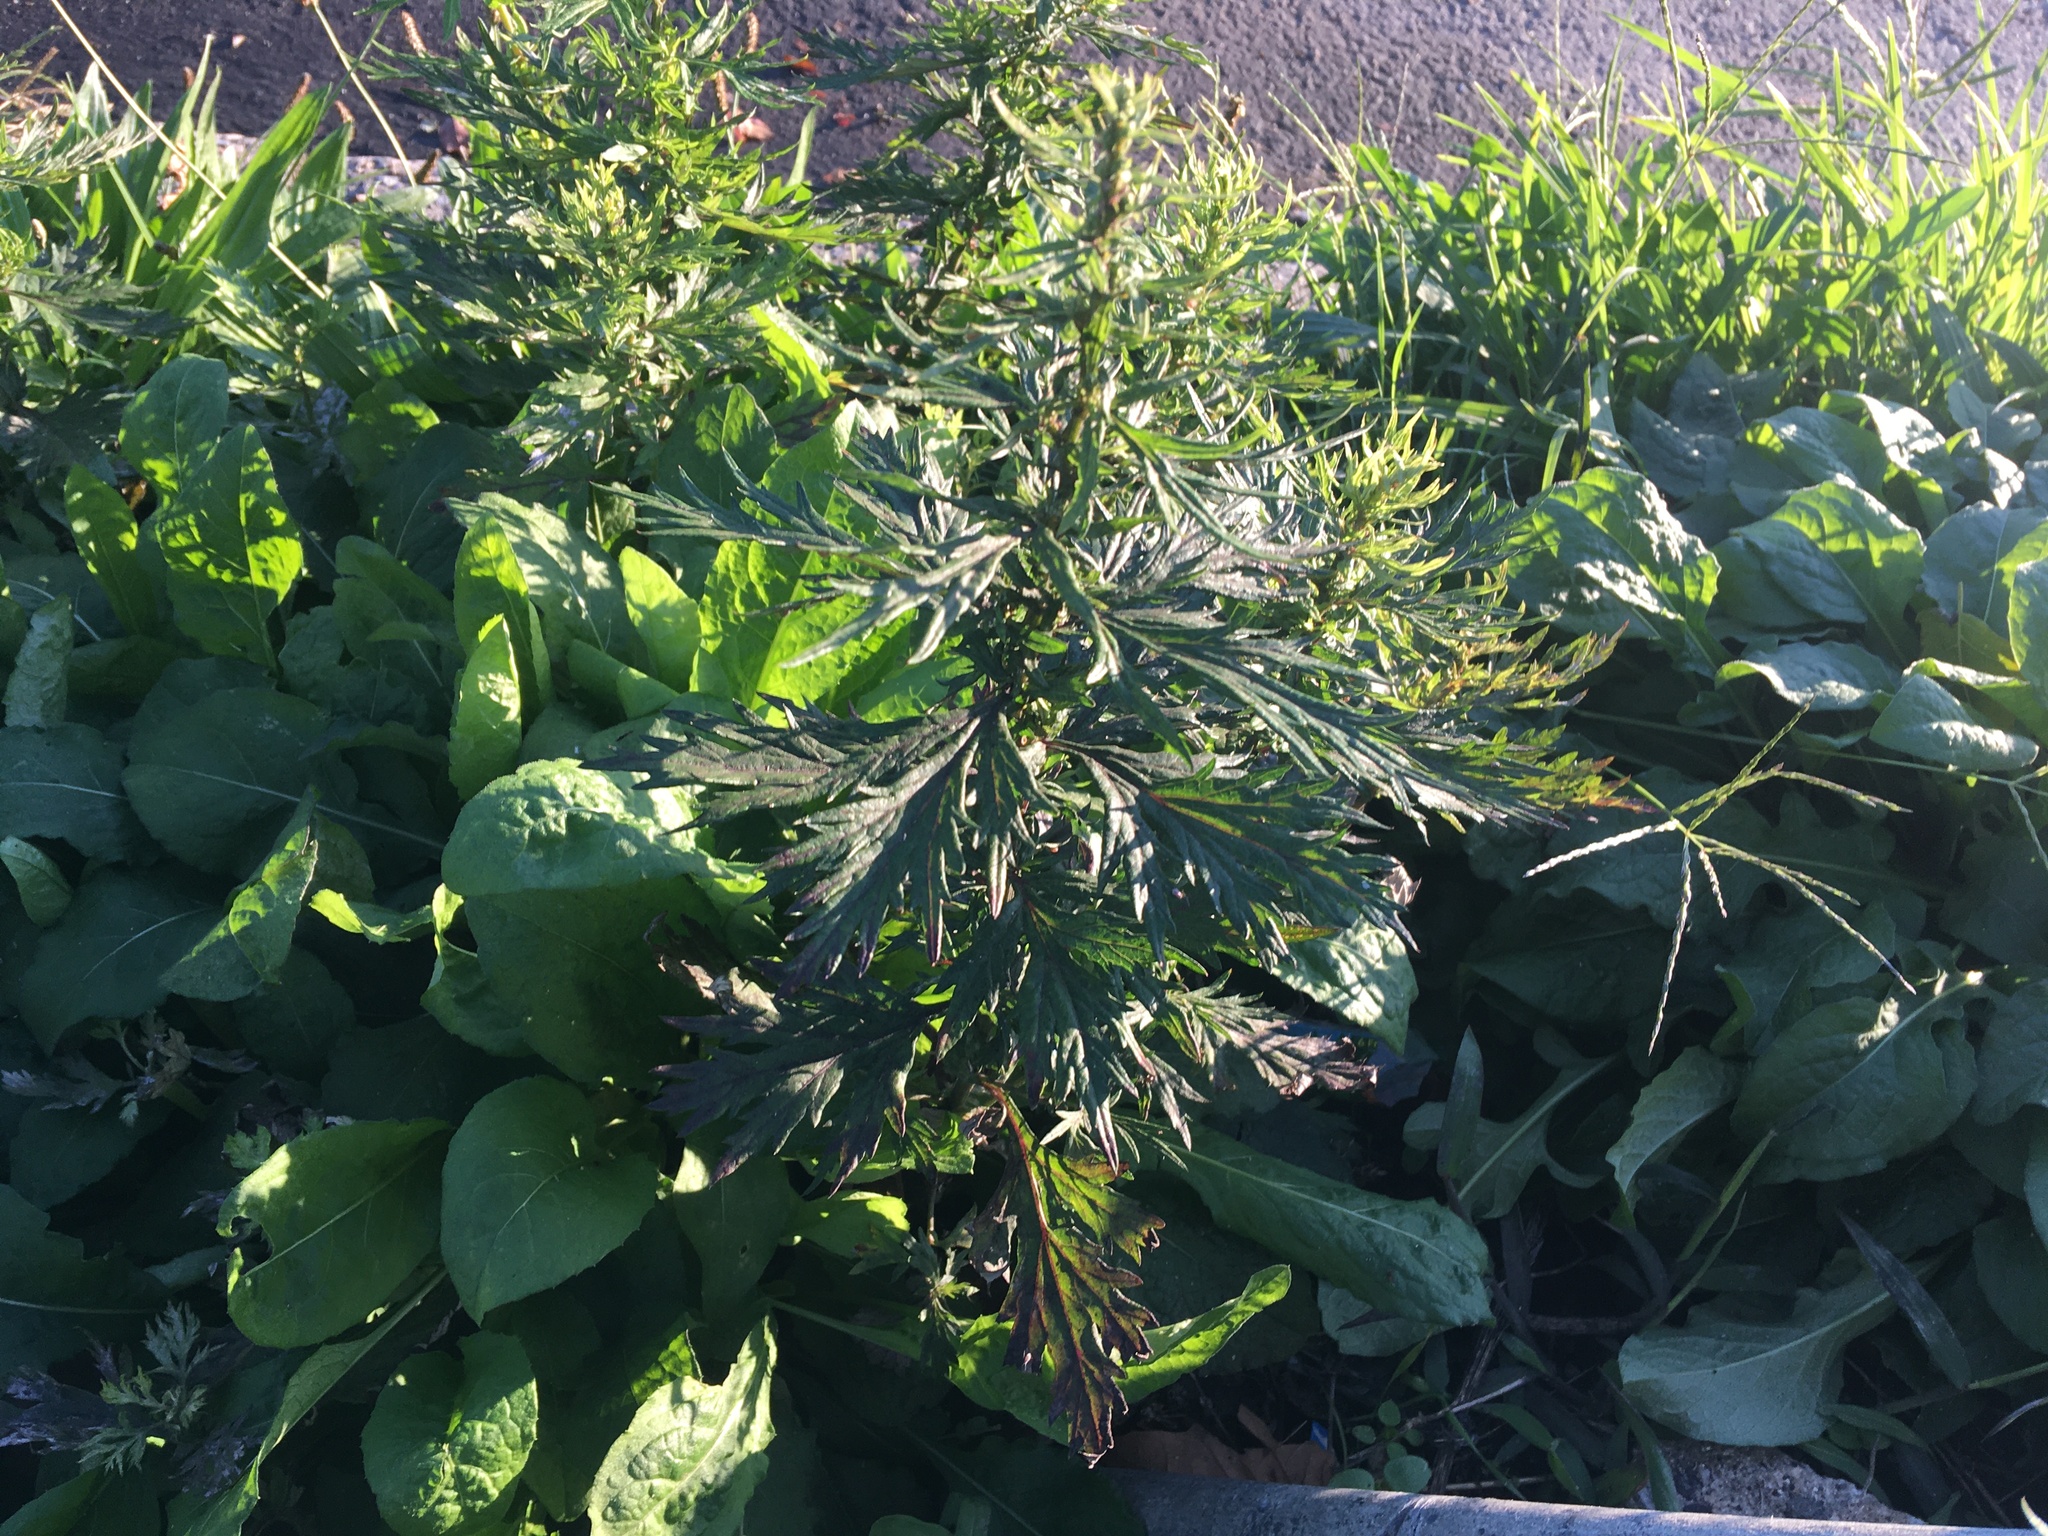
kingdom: Plantae
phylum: Tracheophyta
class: Magnoliopsida
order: Asterales
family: Asteraceae
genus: Artemisia
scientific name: Artemisia vulgaris
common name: Mugwort
